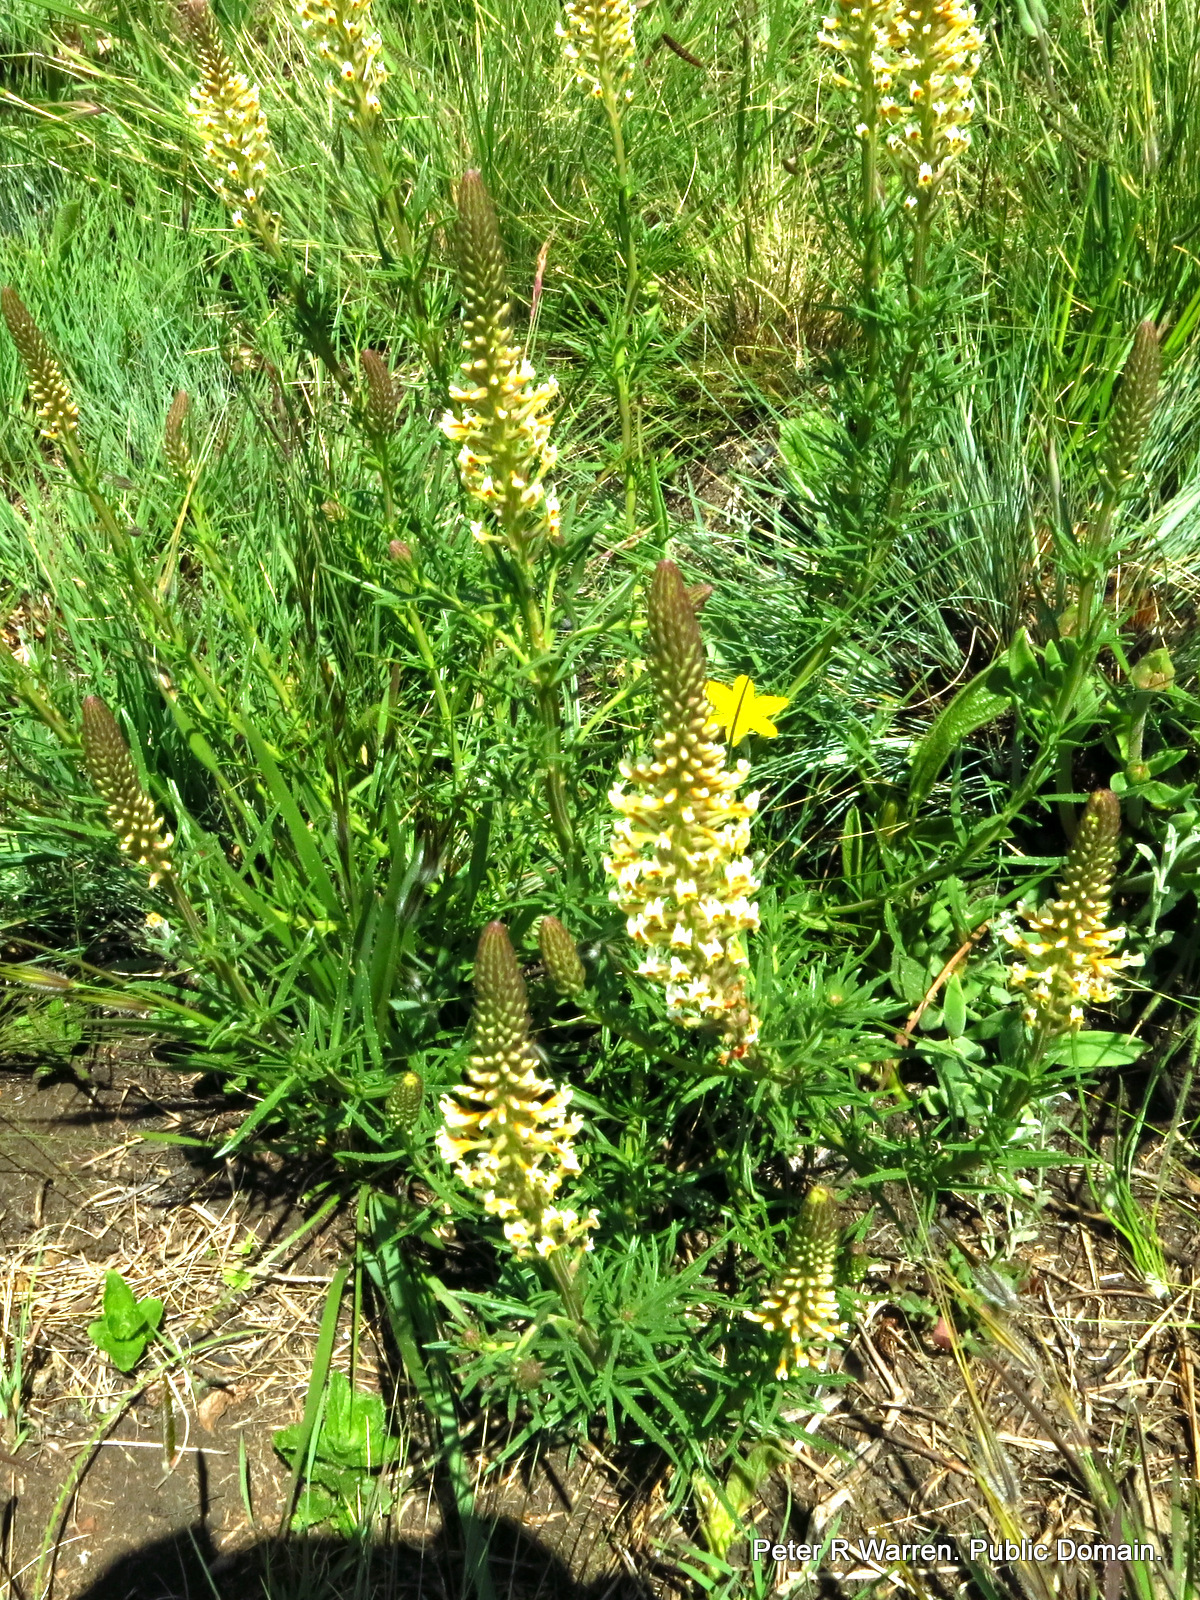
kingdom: Plantae
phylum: Tracheophyta
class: Magnoliopsida
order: Lamiales
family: Scrophulariaceae
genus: Hebenstretia
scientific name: Hebenstretia comosa
